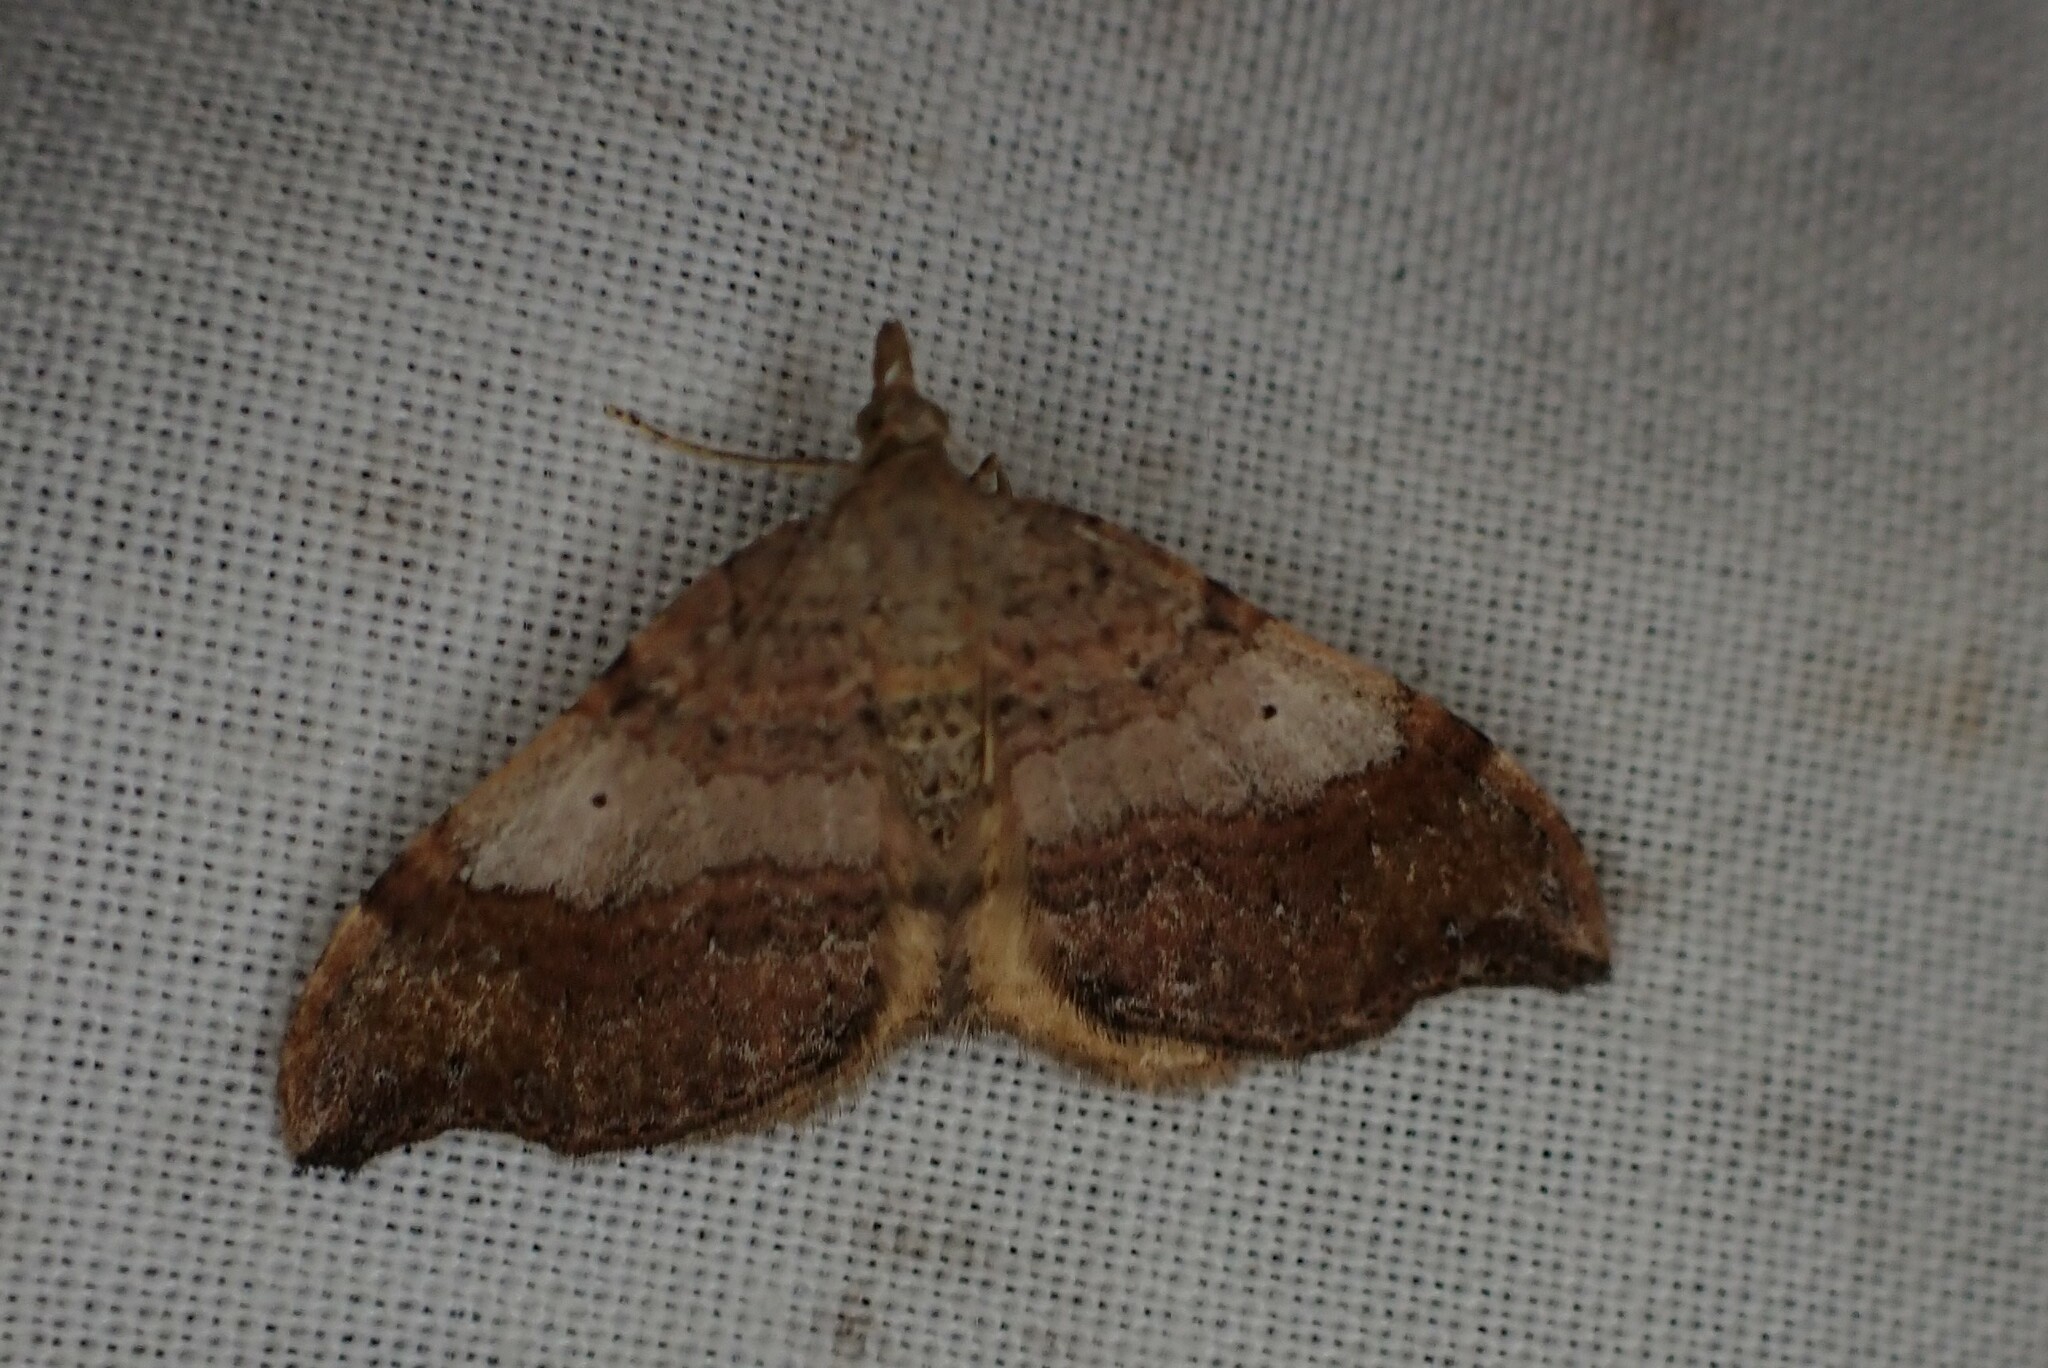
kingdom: Animalia
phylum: Arthropoda
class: Insecta
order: Lepidoptera
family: Geometridae
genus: Homodotis
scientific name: Homodotis megaspilata
